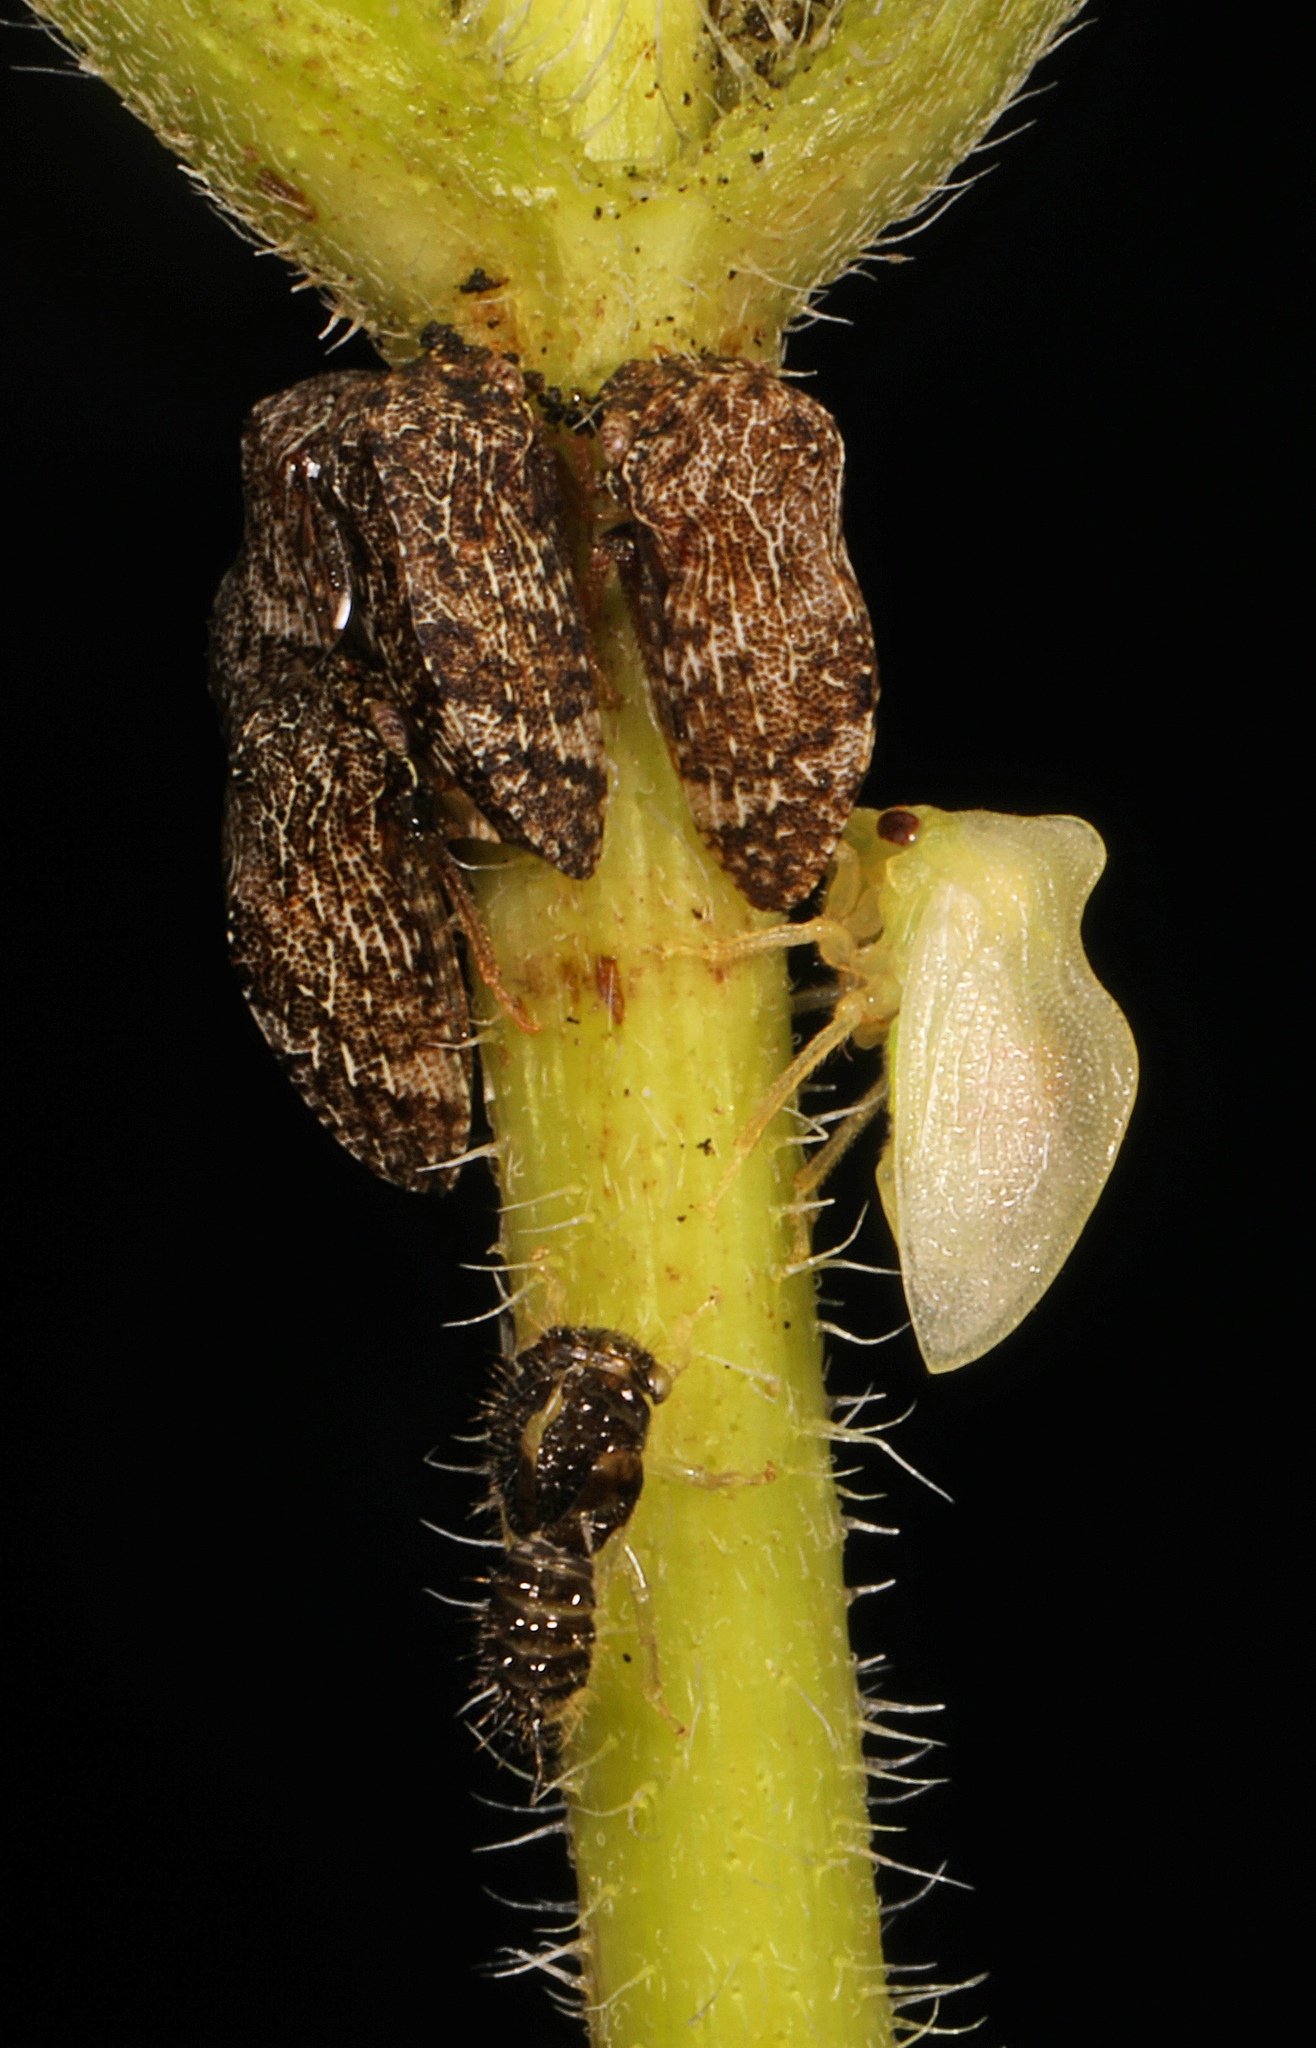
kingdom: Animalia
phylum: Arthropoda
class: Insecta
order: Hemiptera
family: Membracidae
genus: Publilia
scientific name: Publilia concava
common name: Aster treehopper
